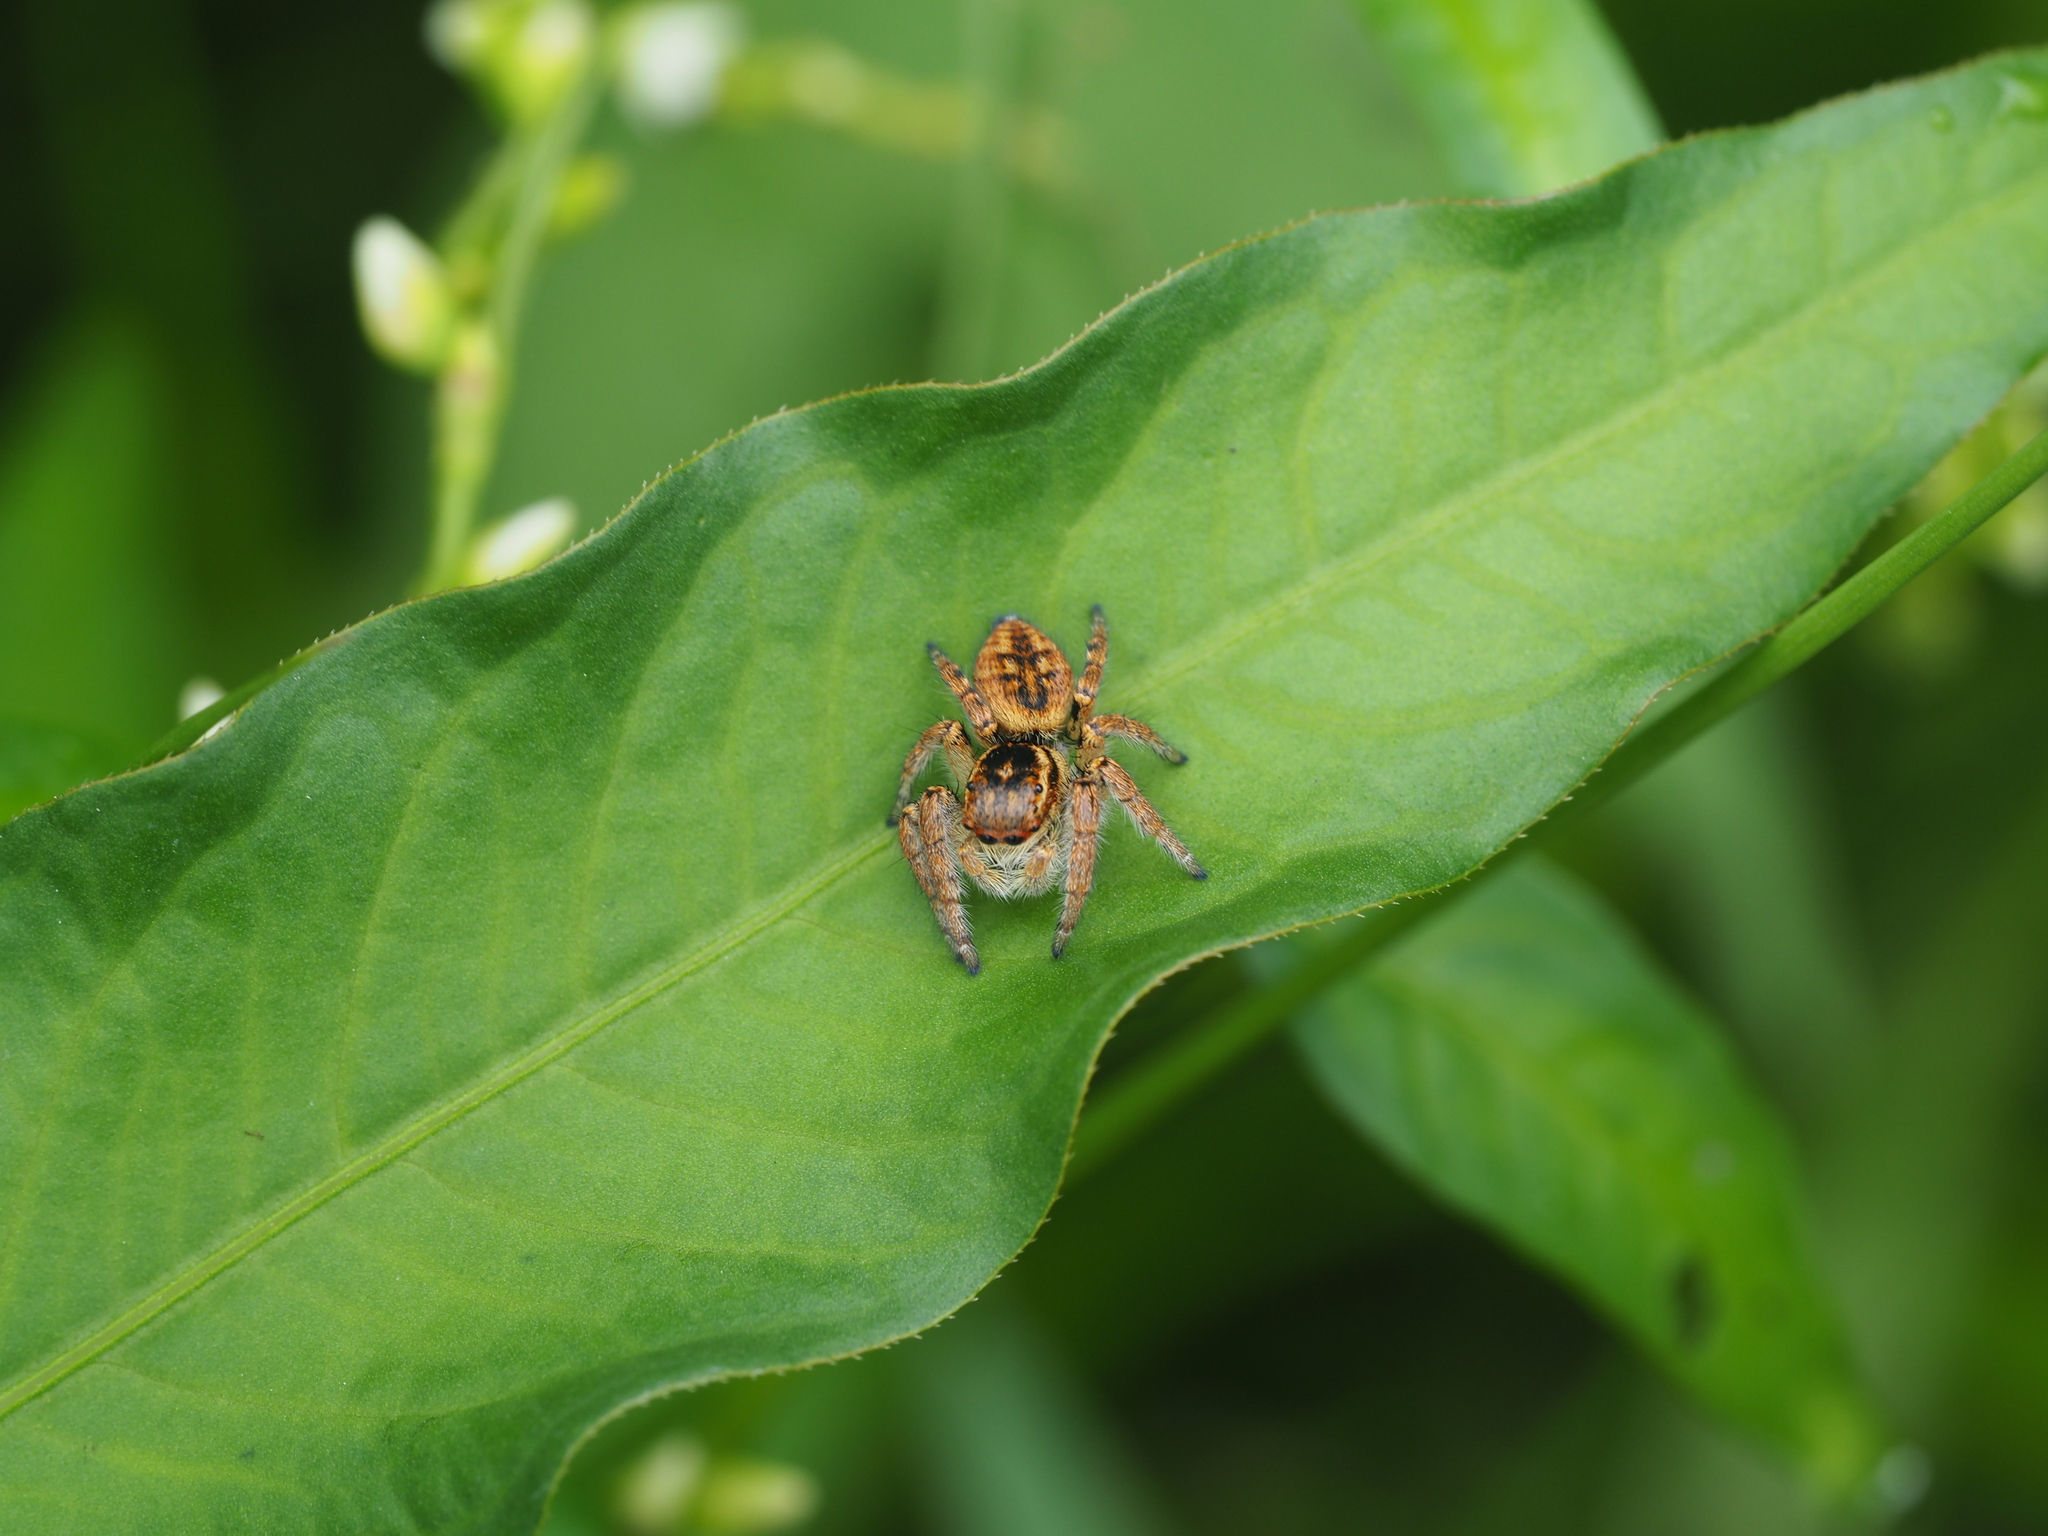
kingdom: Animalia
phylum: Arthropoda
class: Arachnida
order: Araneae
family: Salticidae
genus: Carrhotus
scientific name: Carrhotus xanthogramma
